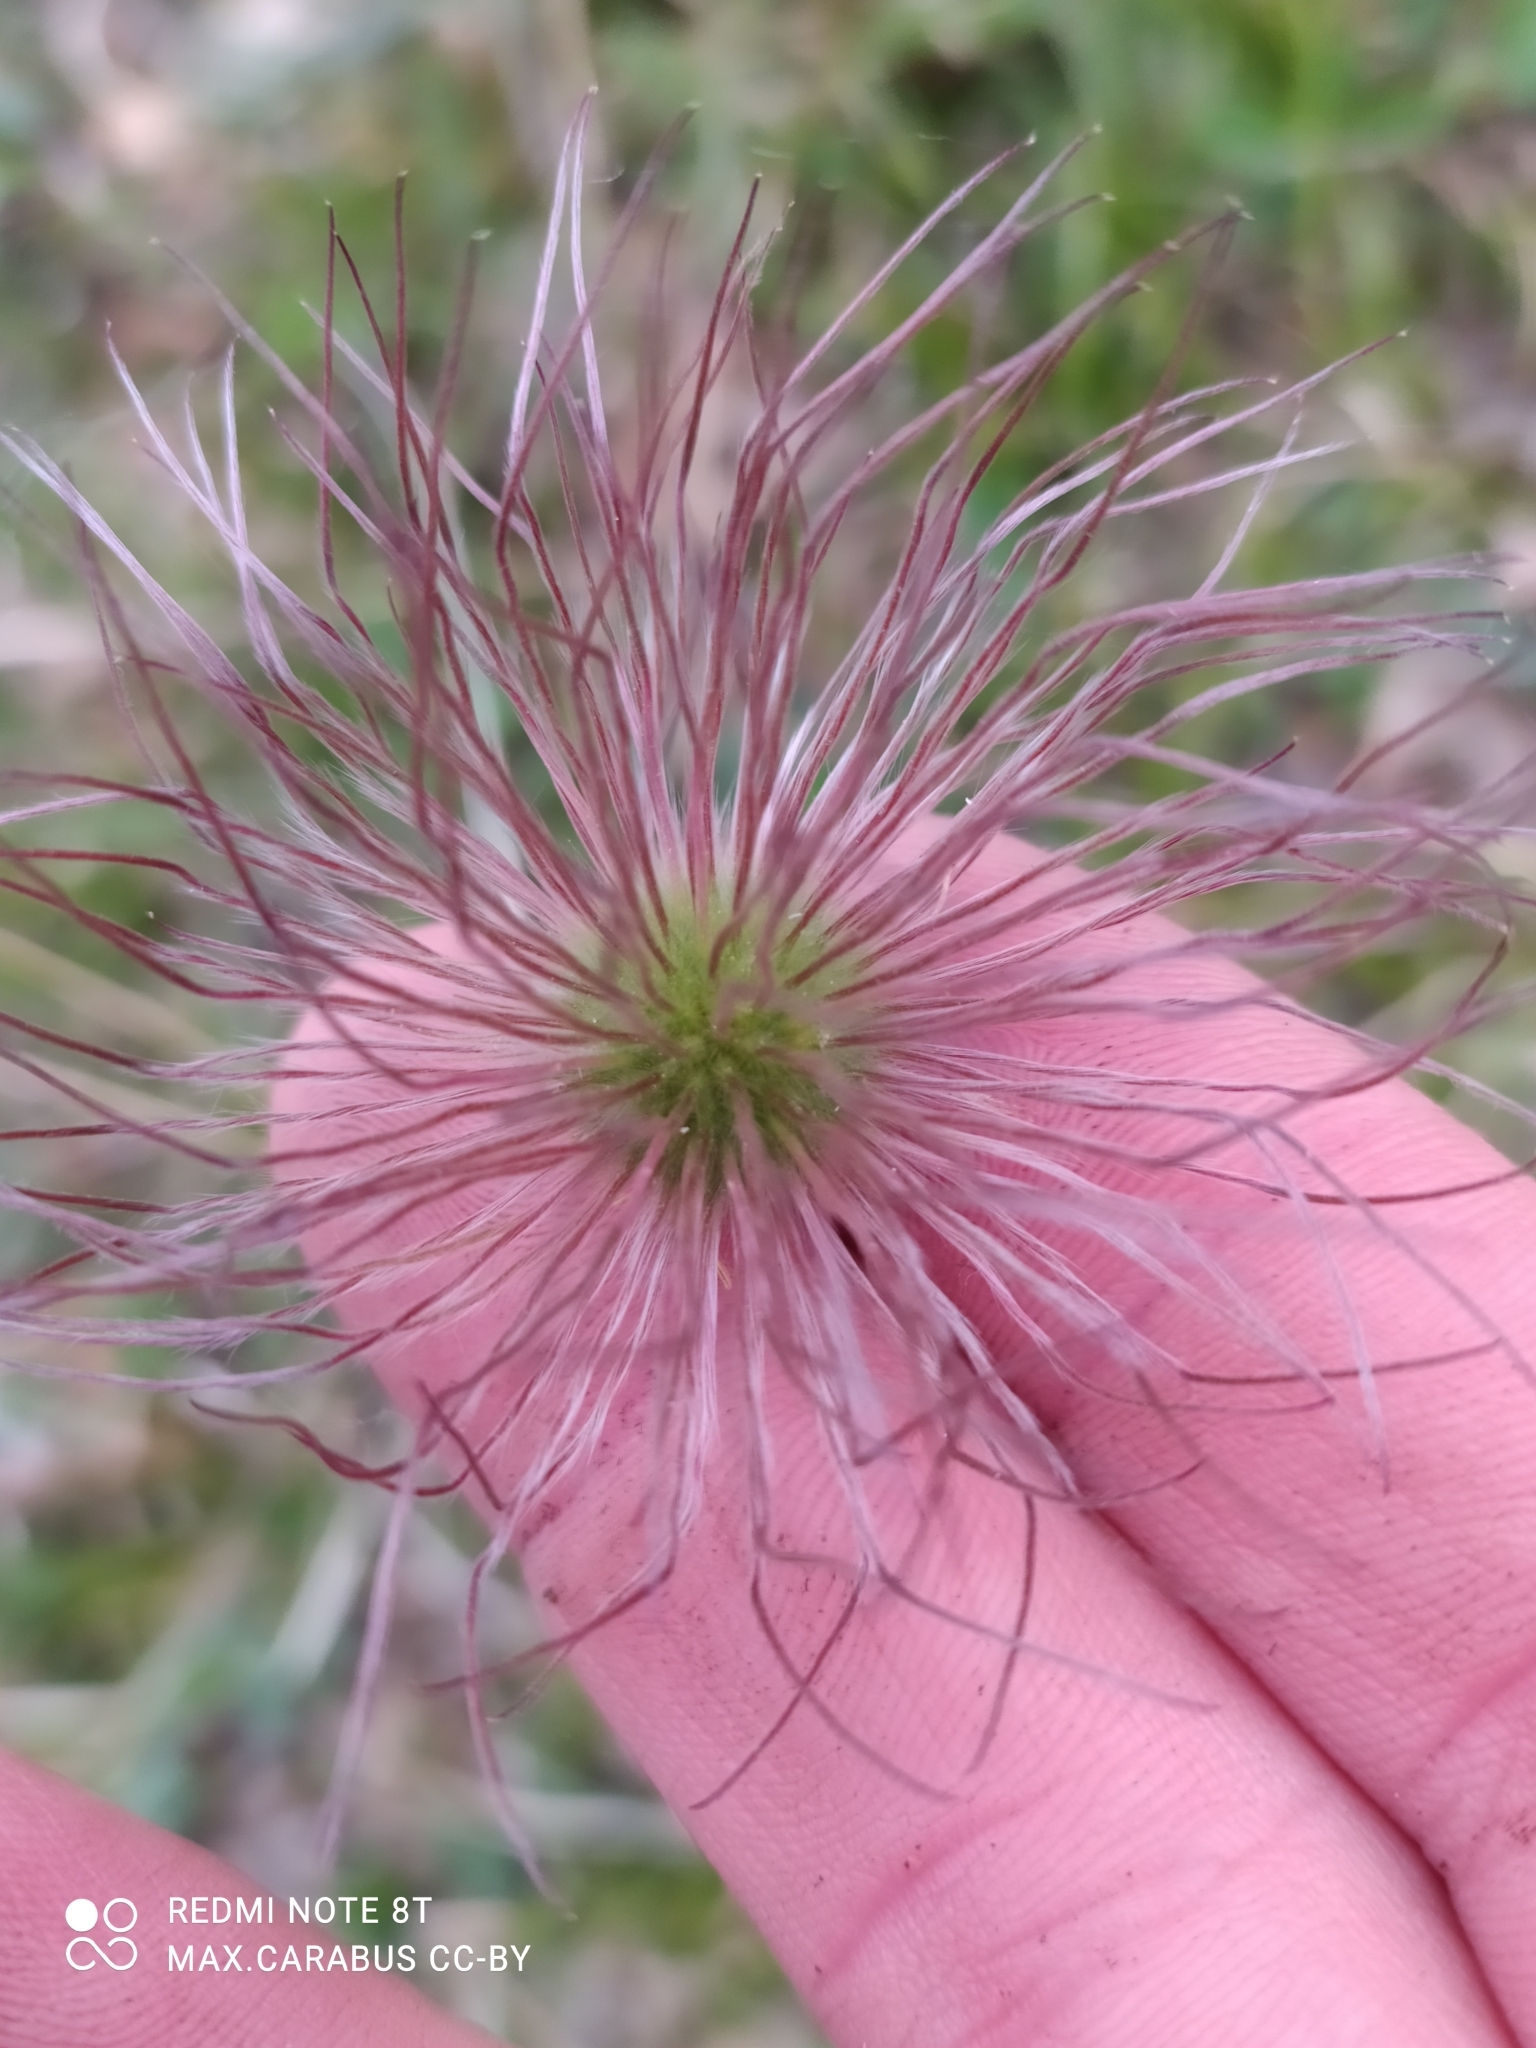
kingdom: Plantae
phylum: Tracheophyta
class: Magnoliopsida
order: Ranunculales
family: Ranunculaceae
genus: Pulsatilla
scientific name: Pulsatilla patens
